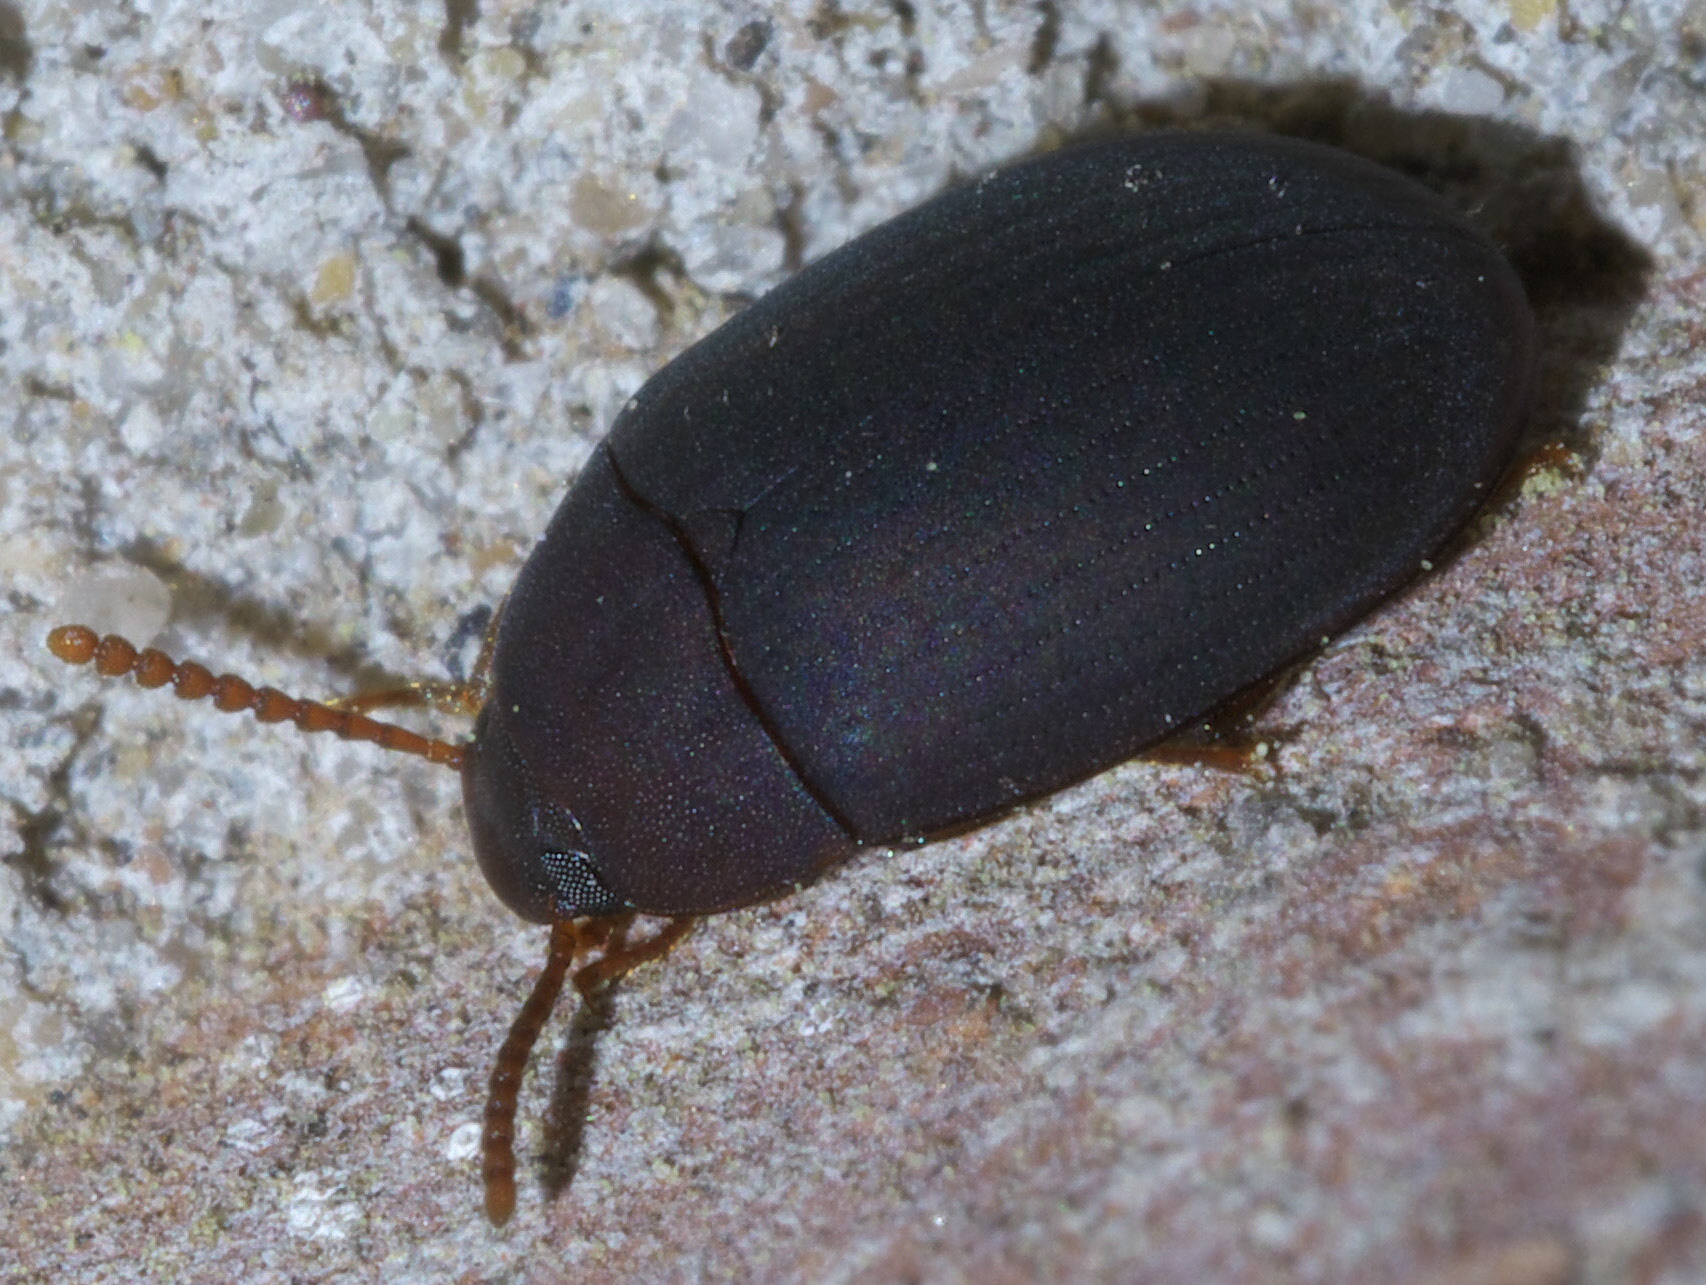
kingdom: Animalia
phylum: Arthropoda
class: Insecta
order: Coleoptera
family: Tenebrionidae
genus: Platydema
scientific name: Platydema ruficornis
